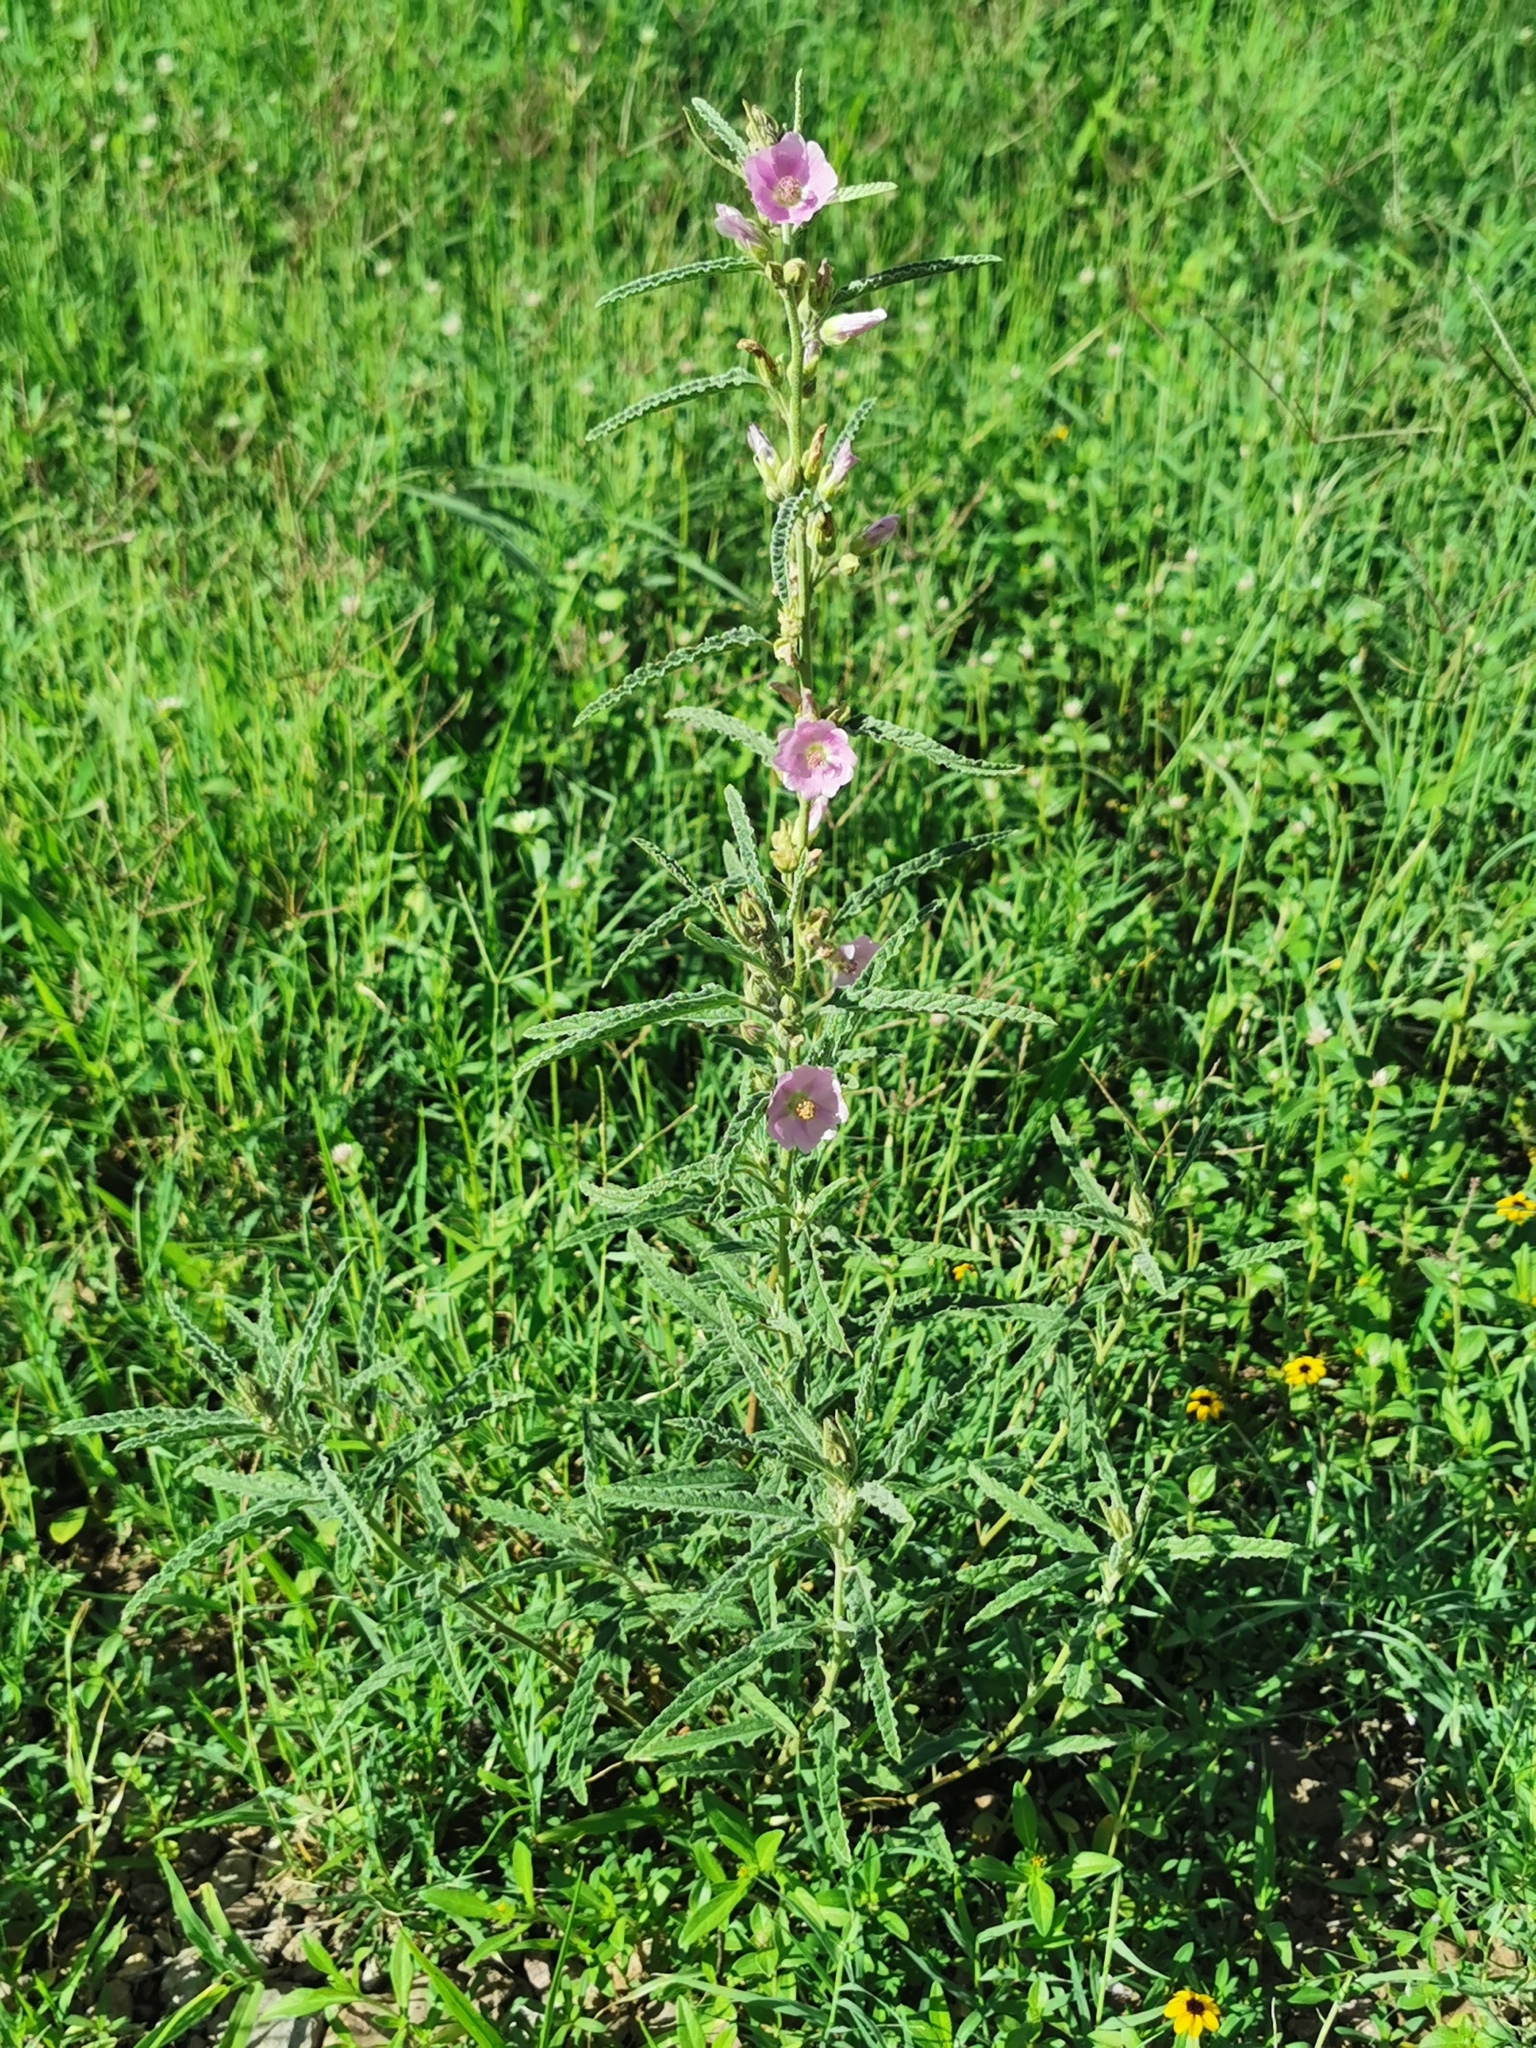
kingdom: Plantae
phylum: Tracheophyta
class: Magnoliopsida
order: Malvales
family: Malvaceae
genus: Sphaeralcea
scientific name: Sphaeralcea angustifolia
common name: Copper globe-mallow
